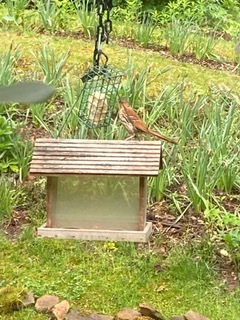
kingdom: Animalia
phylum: Chordata
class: Aves
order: Passeriformes
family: Mimidae
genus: Toxostoma
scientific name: Toxostoma rufum
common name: Brown thrasher
